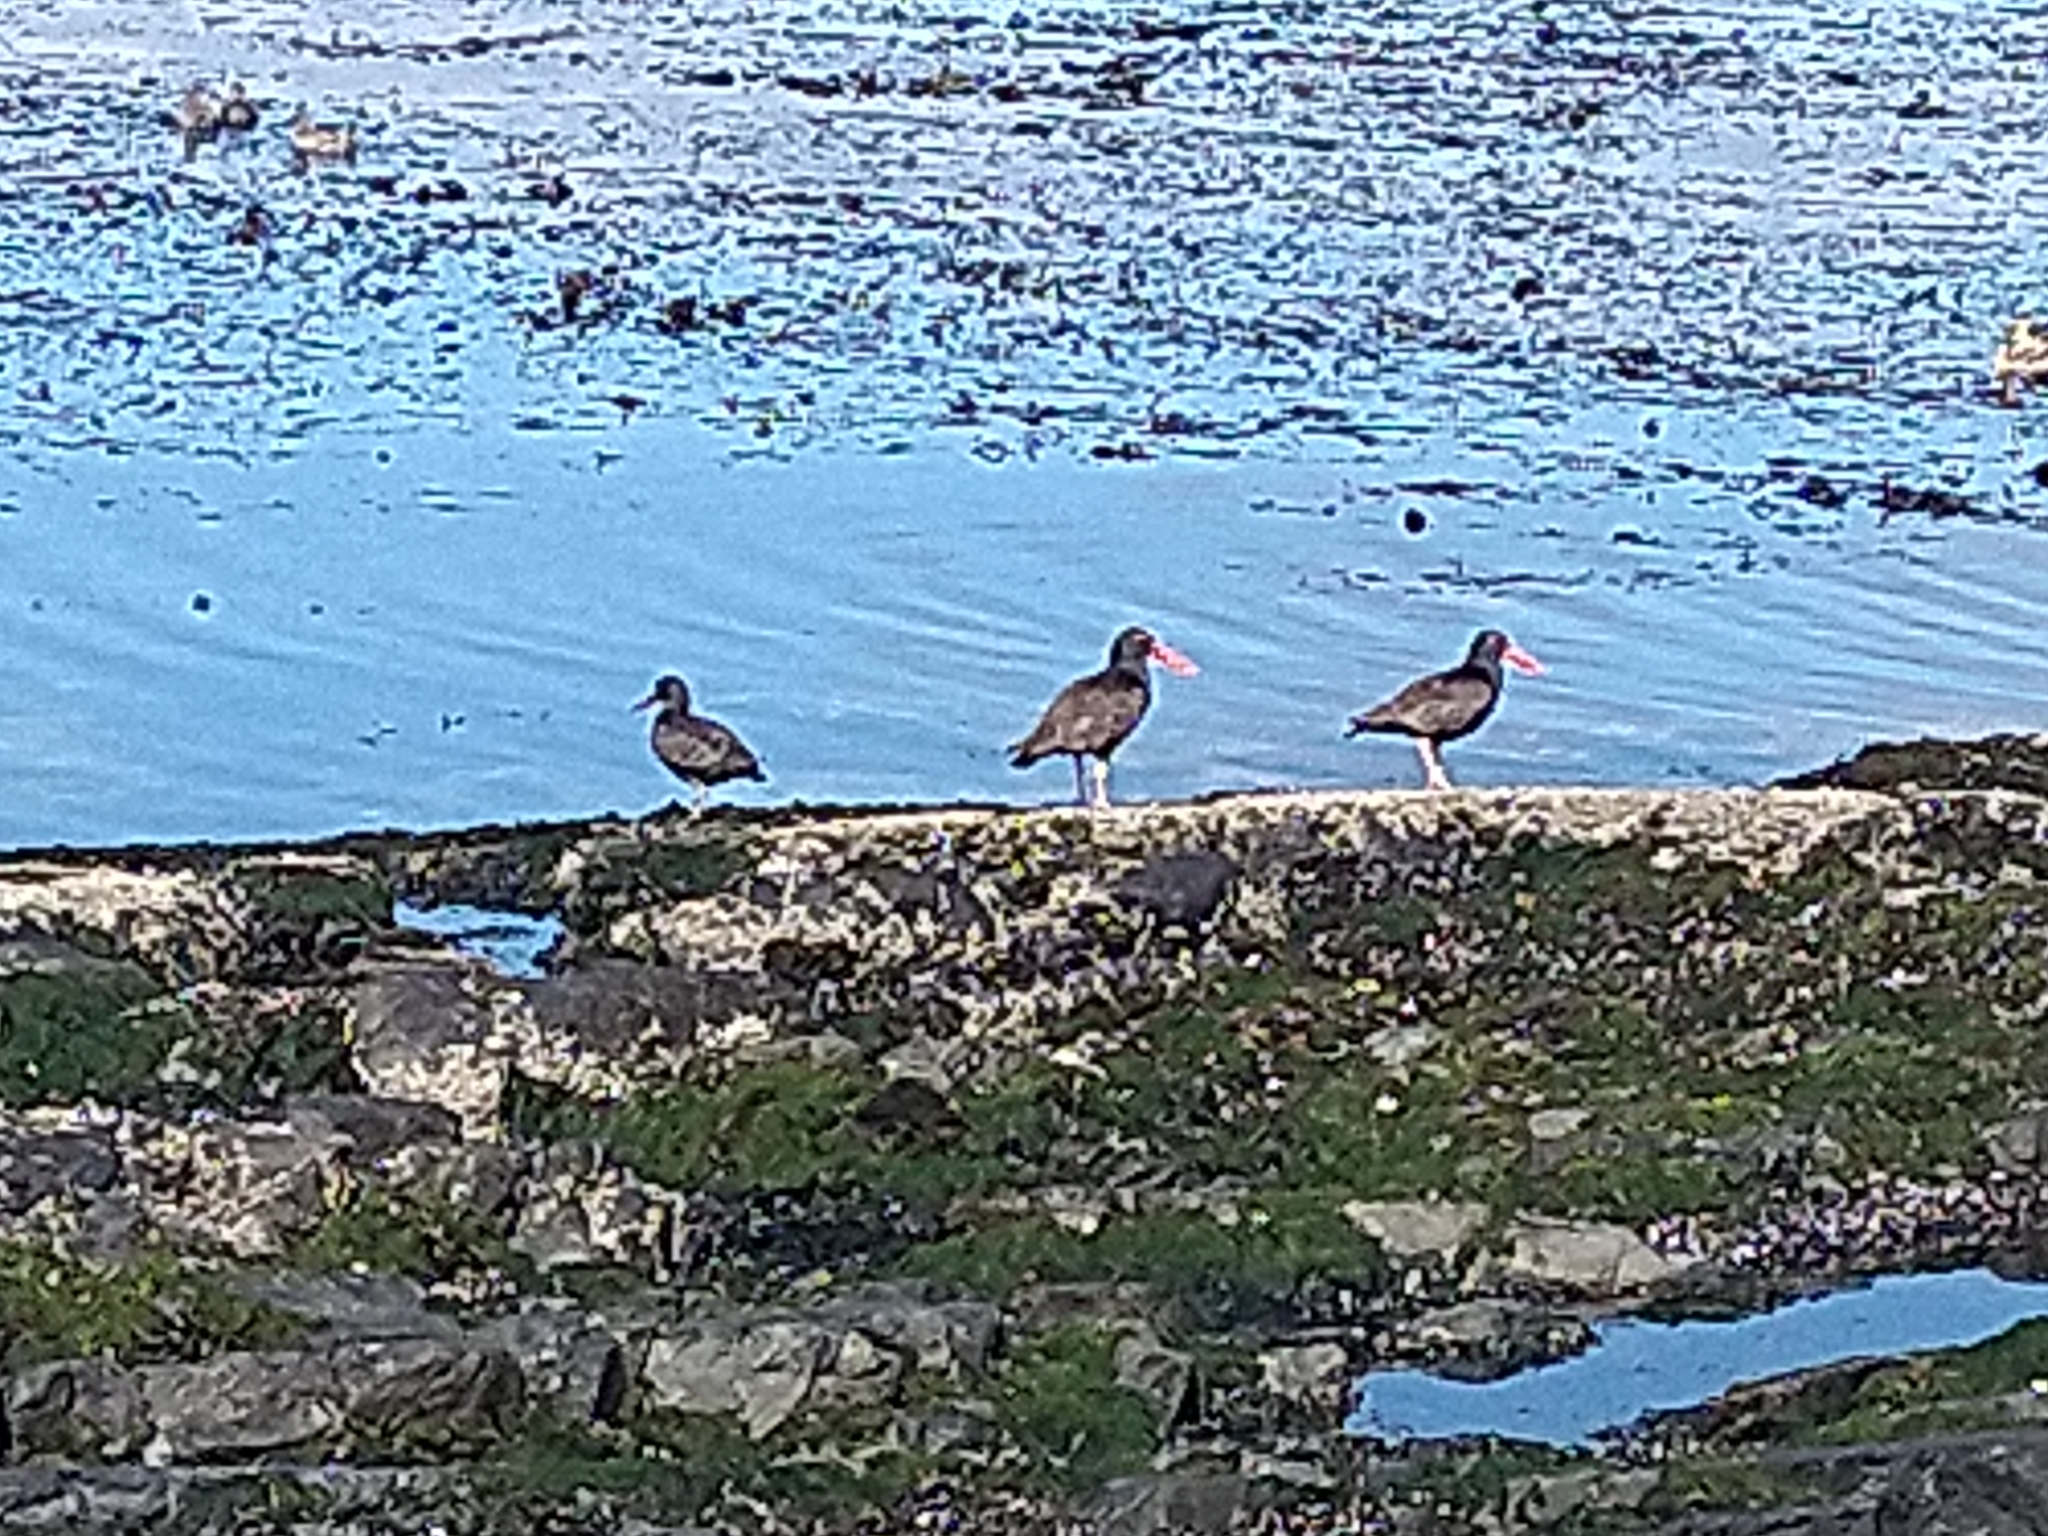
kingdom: Animalia
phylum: Chordata
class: Aves
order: Charadriiformes
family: Haematopodidae
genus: Haematopus
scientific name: Haematopus ater
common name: Blackish oystercatcher
